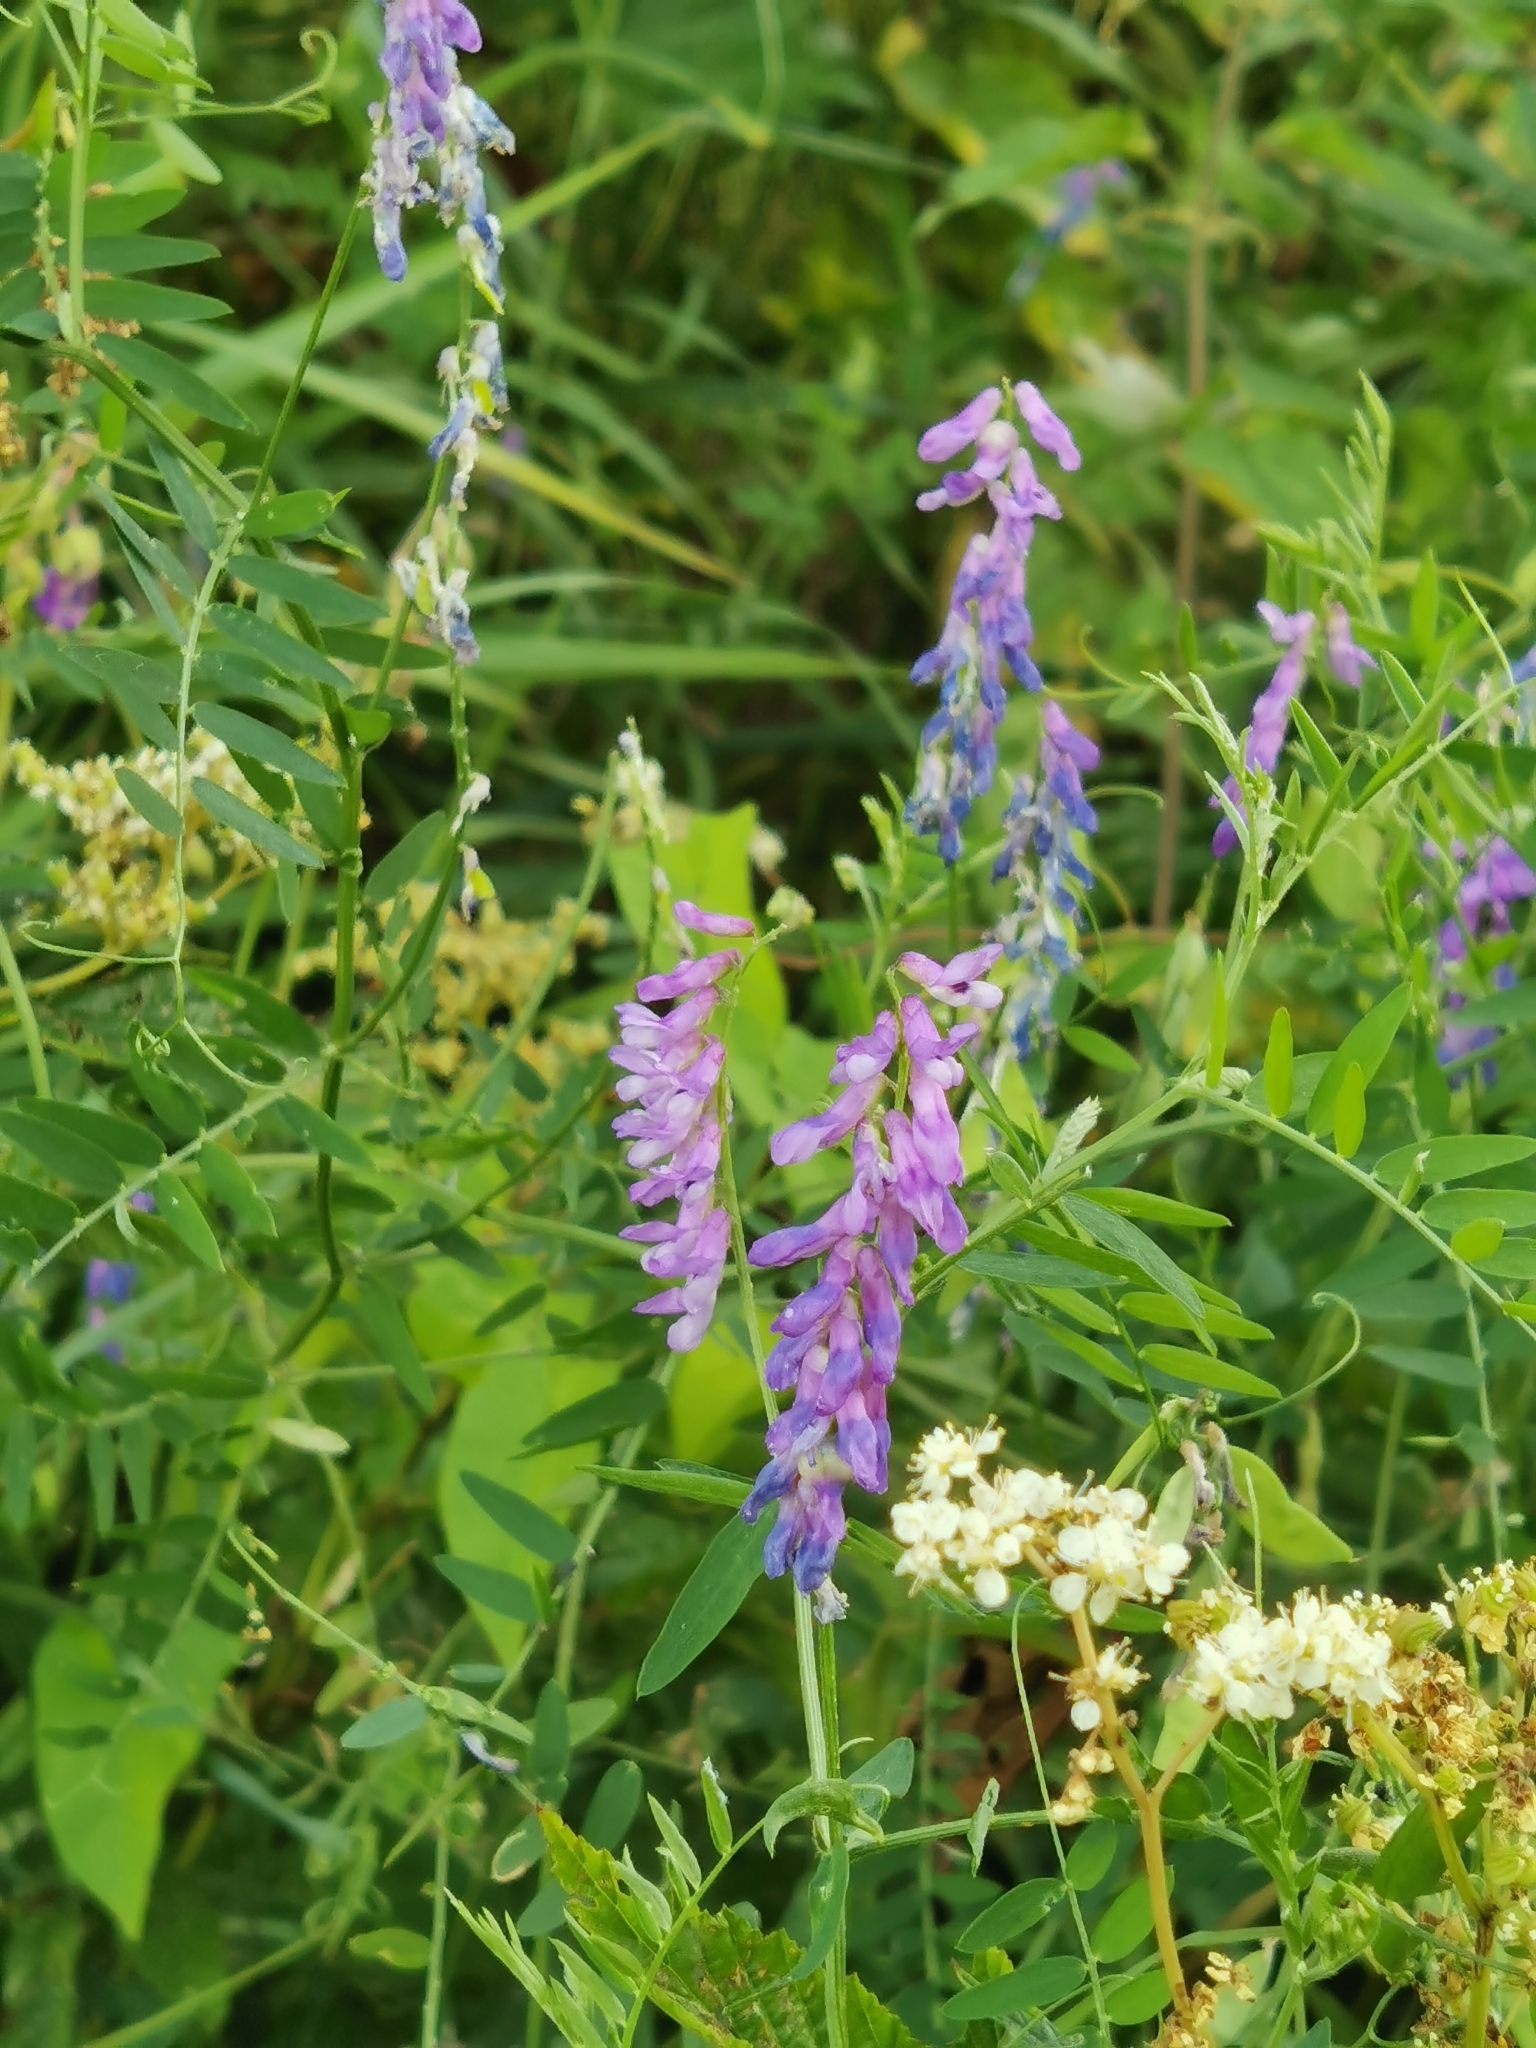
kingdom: Plantae
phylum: Tracheophyta
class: Magnoliopsida
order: Fabales
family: Fabaceae
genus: Vicia
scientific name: Vicia cracca
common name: Bird vetch
